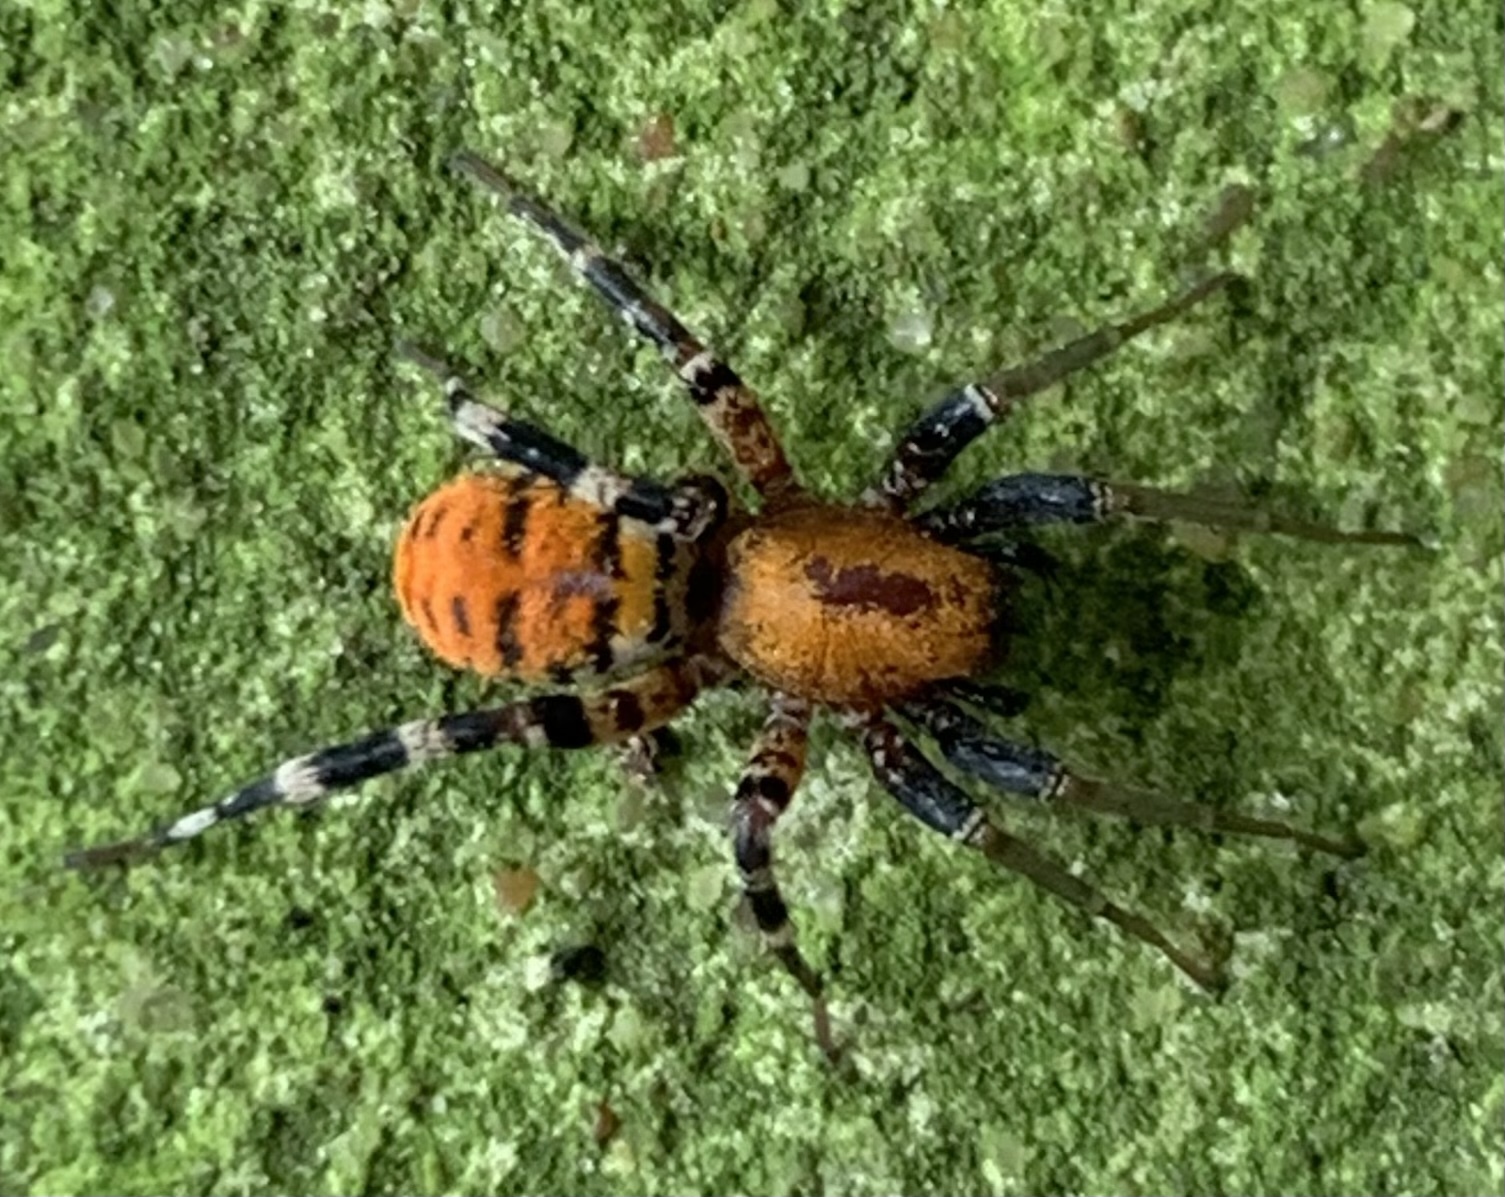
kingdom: Animalia
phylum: Arthropoda
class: Arachnida
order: Araneae
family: Corinnidae
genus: Castianeira
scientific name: Castianeira amoena
